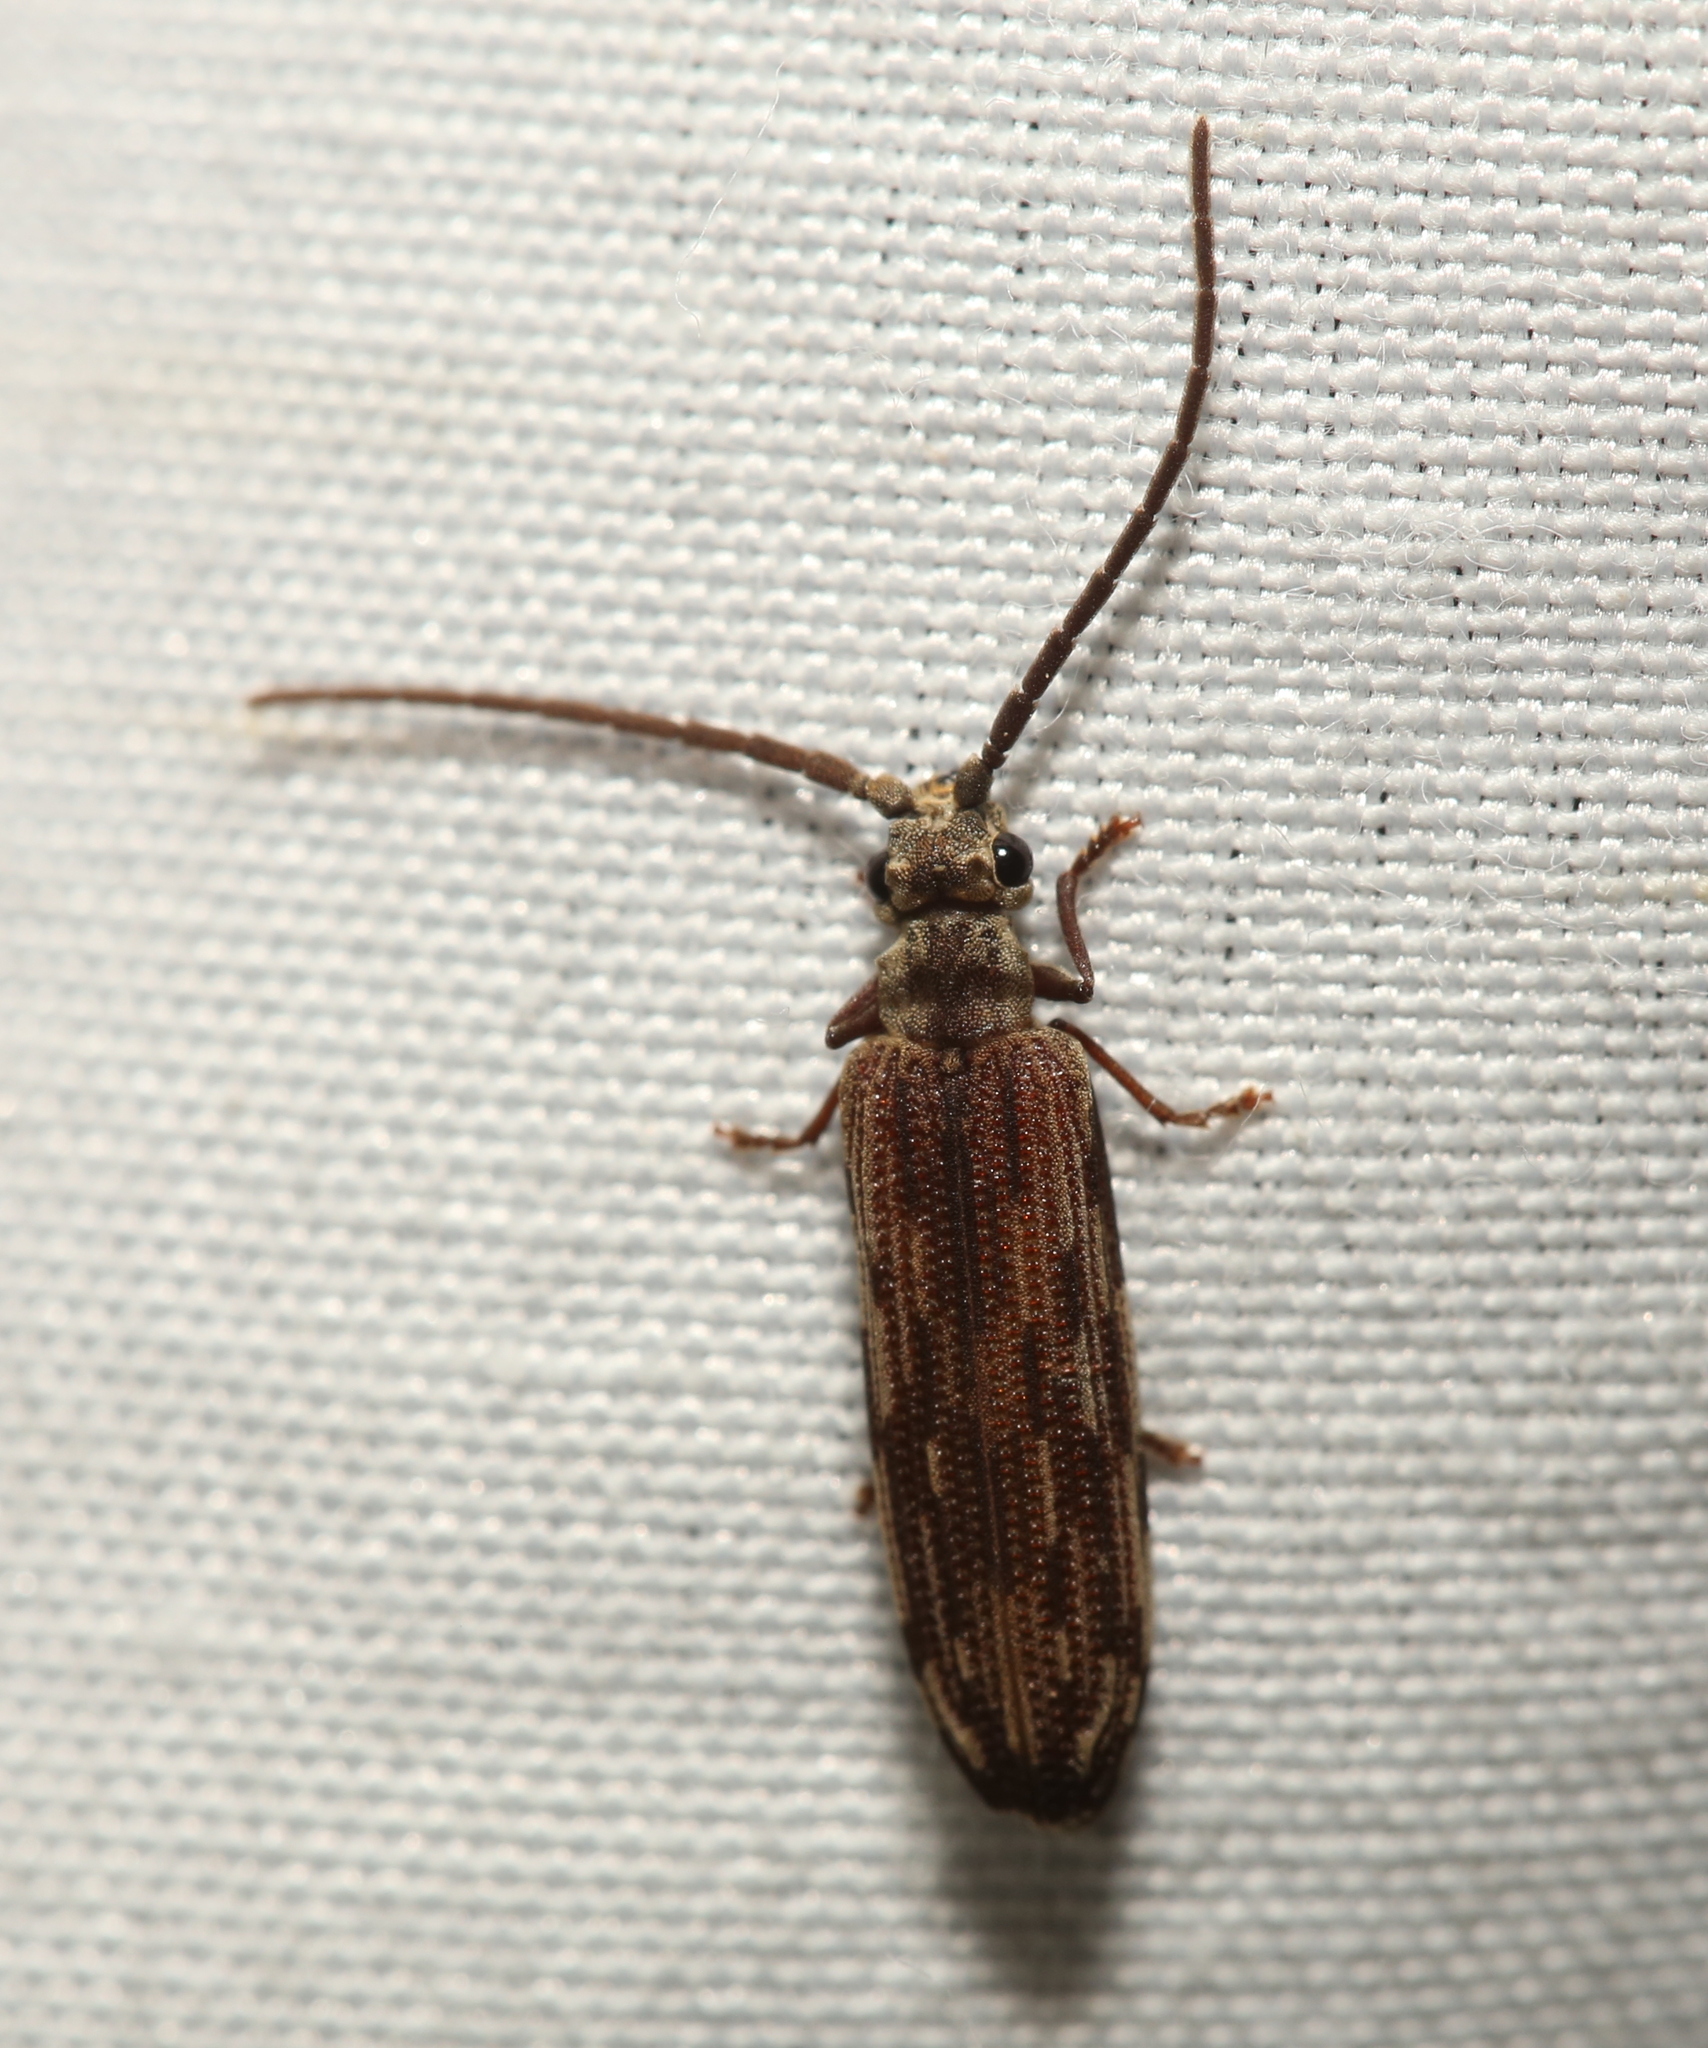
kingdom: Animalia
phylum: Arthropoda
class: Insecta
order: Coleoptera
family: Cupedidae
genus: Tenomerga
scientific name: Tenomerga cinerea
